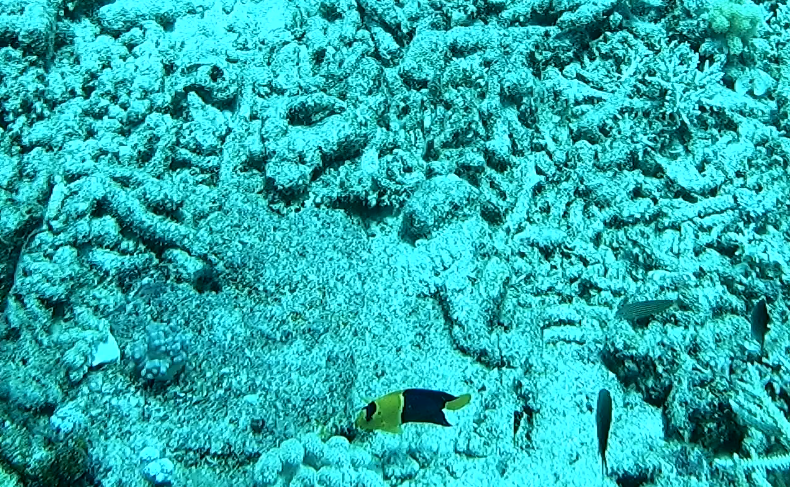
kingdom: Animalia
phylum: Chordata
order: Perciformes
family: Pomacanthidae
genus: Centropyge
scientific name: Centropyge bicolor
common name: Bicolor angelfish
